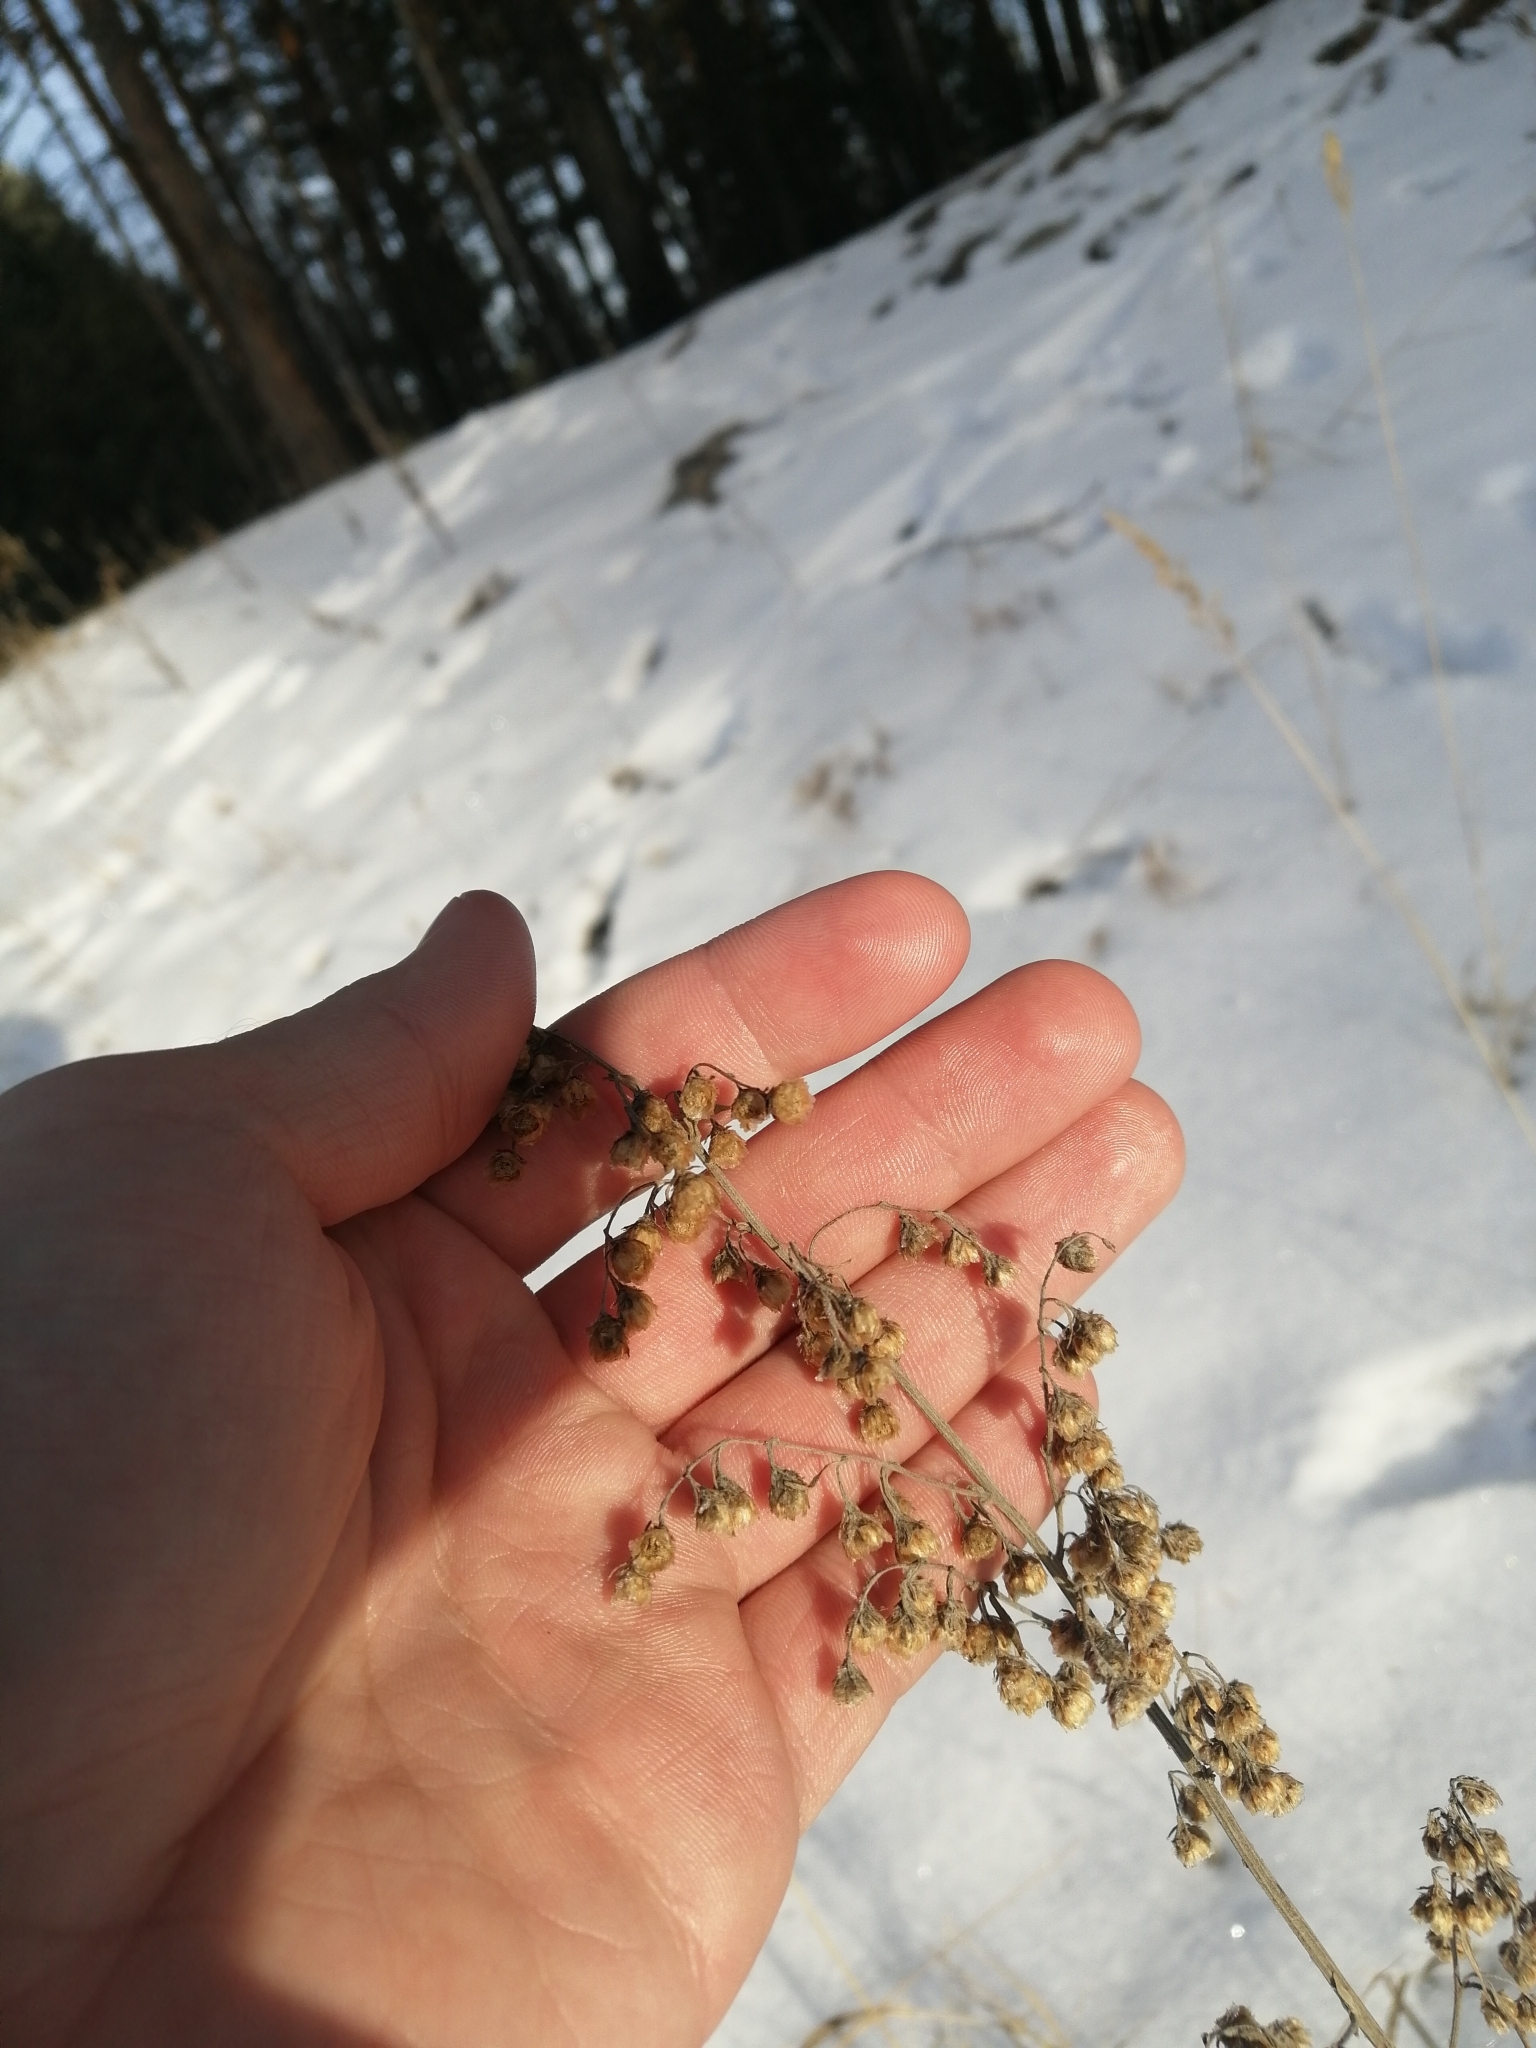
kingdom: Plantae
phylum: Tracheophyta
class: Magnoliopsida
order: Asterales
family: Asteraceae
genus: Artemisia
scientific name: Artemisia sieversiana
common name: Sieversian wormwood
